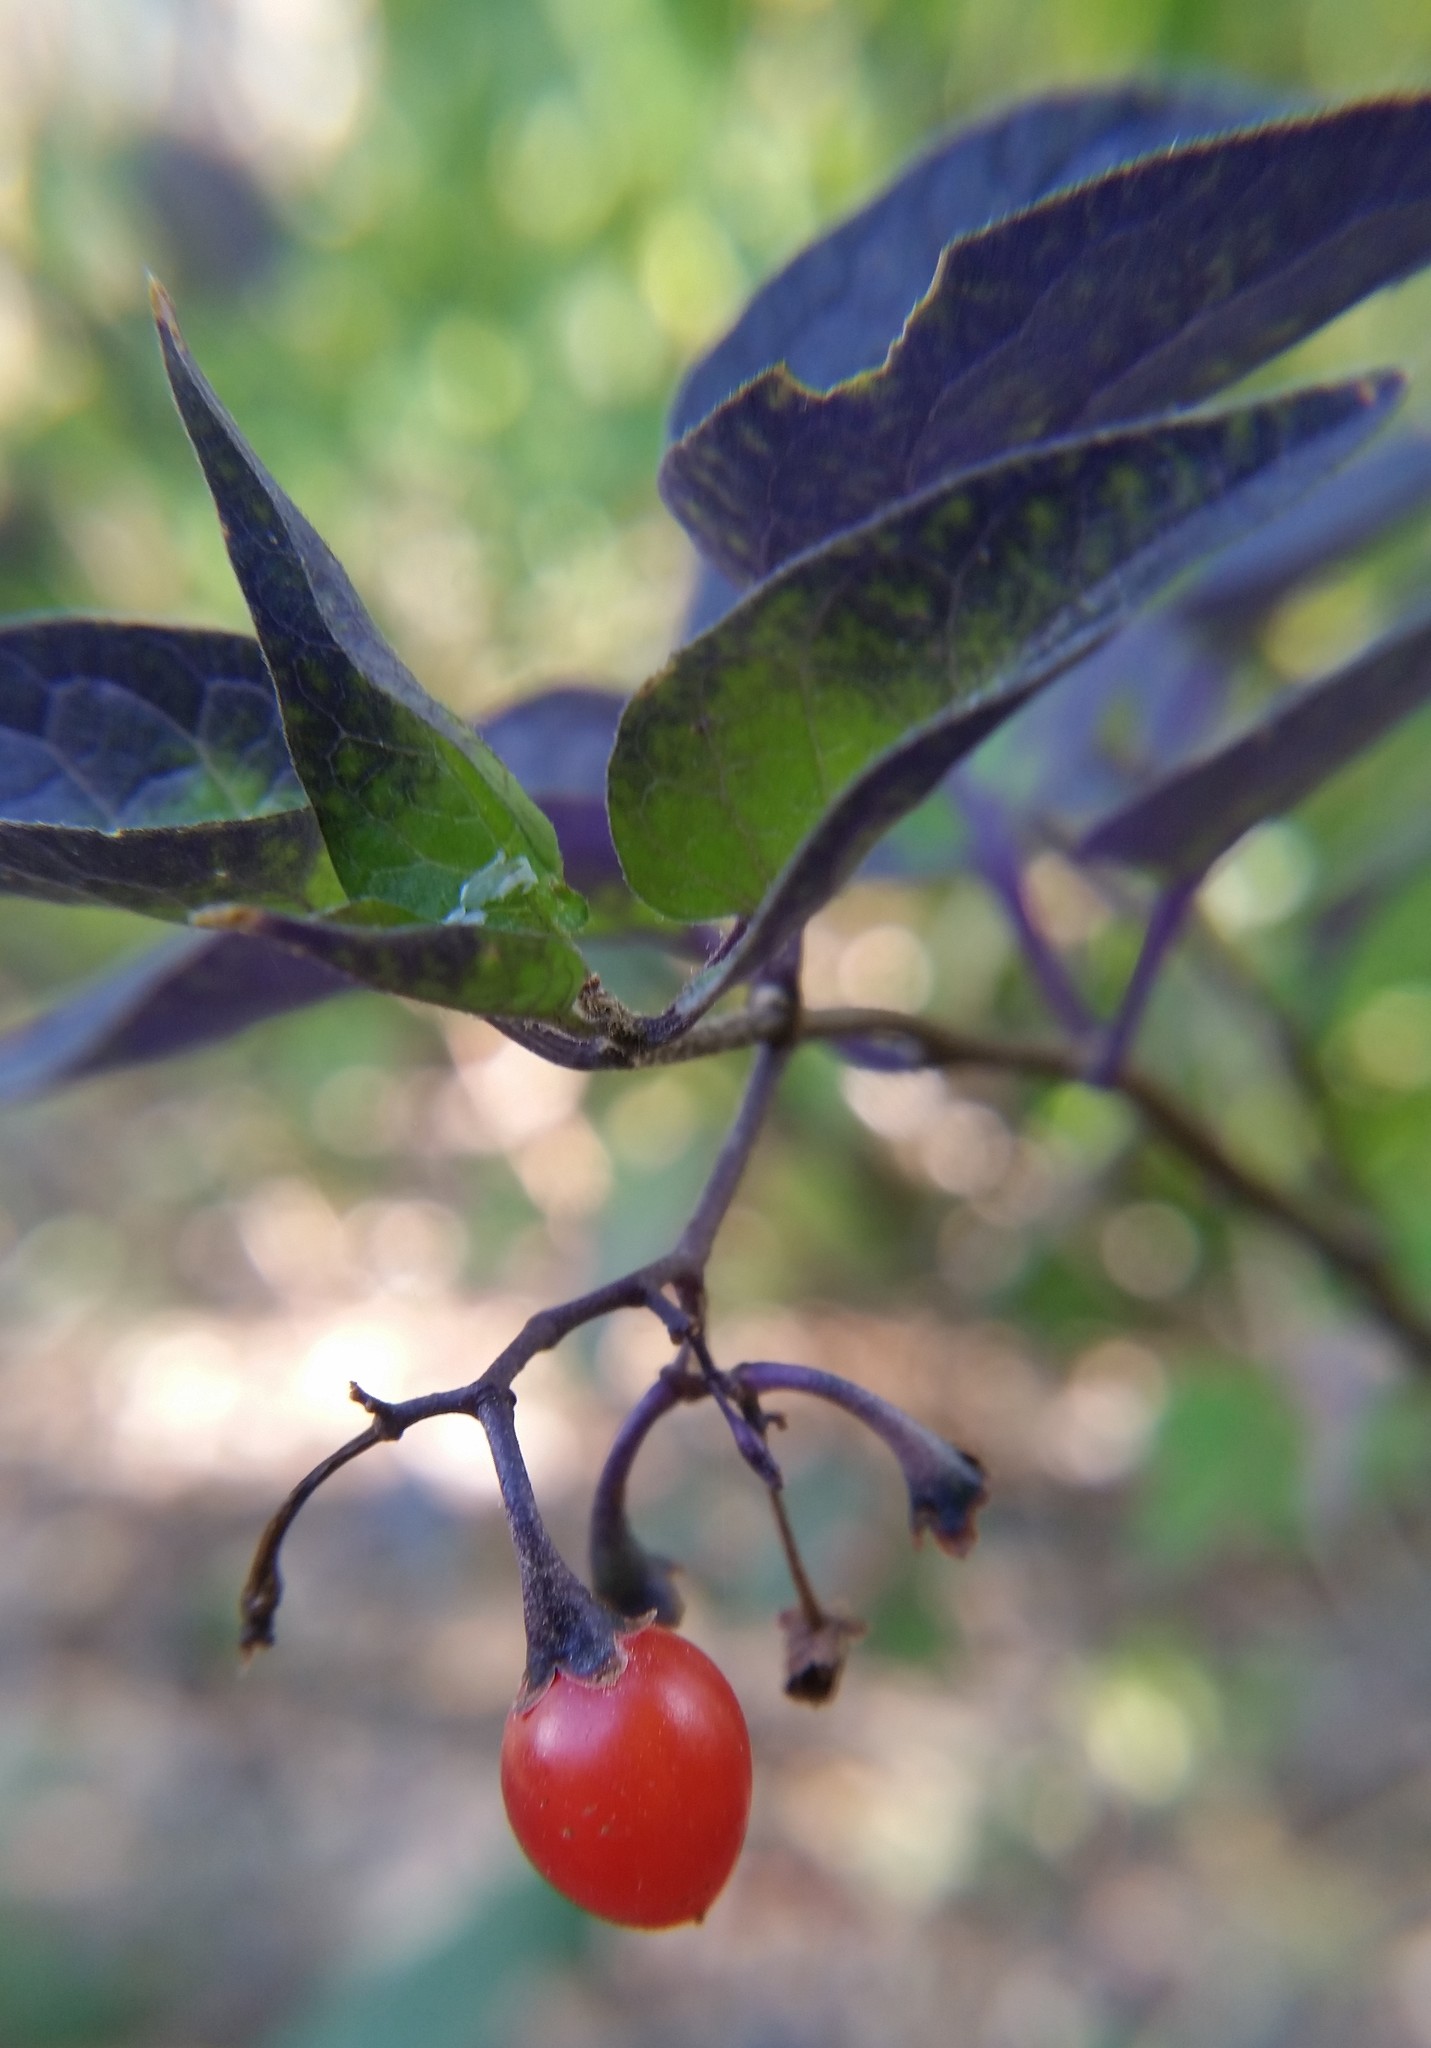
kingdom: Plantae
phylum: Tracheophyta
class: Magnoliopsida
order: Solanales
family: Solanaceae
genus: Solanum
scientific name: Solanum dulcamara
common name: Climbing nightshade
